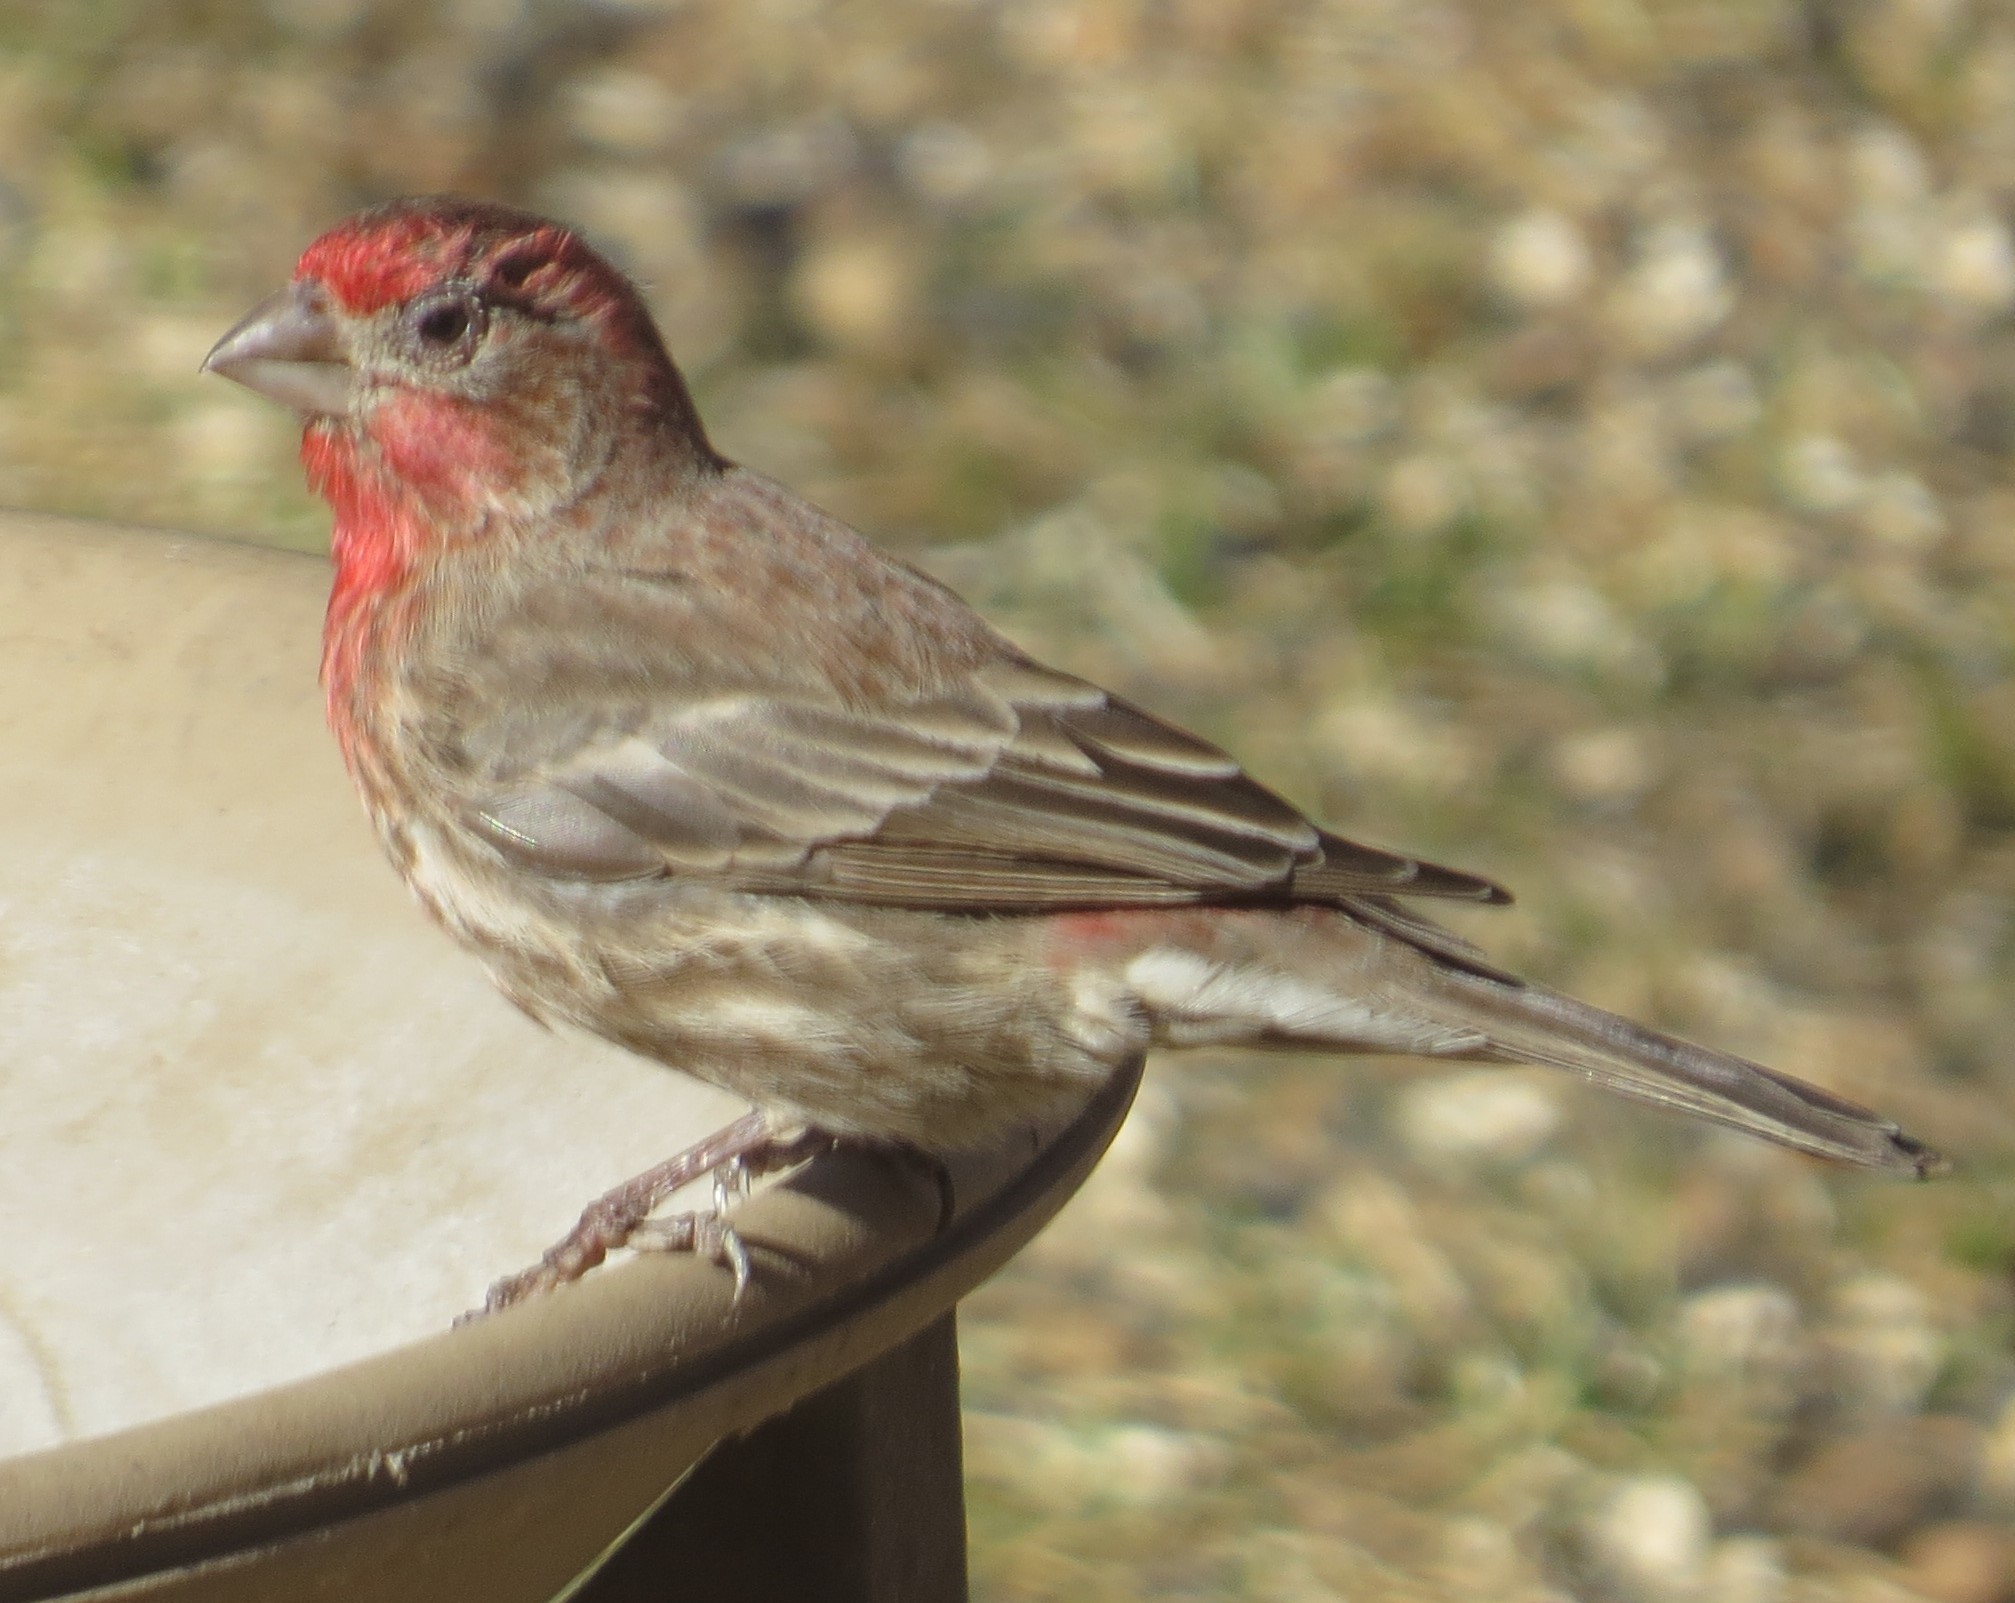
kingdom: Animalia
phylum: Chordata
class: Aves
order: Passeriformes
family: Fringillidae
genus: Haemorhous
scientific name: Haemorhous mexicanus
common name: House finch
